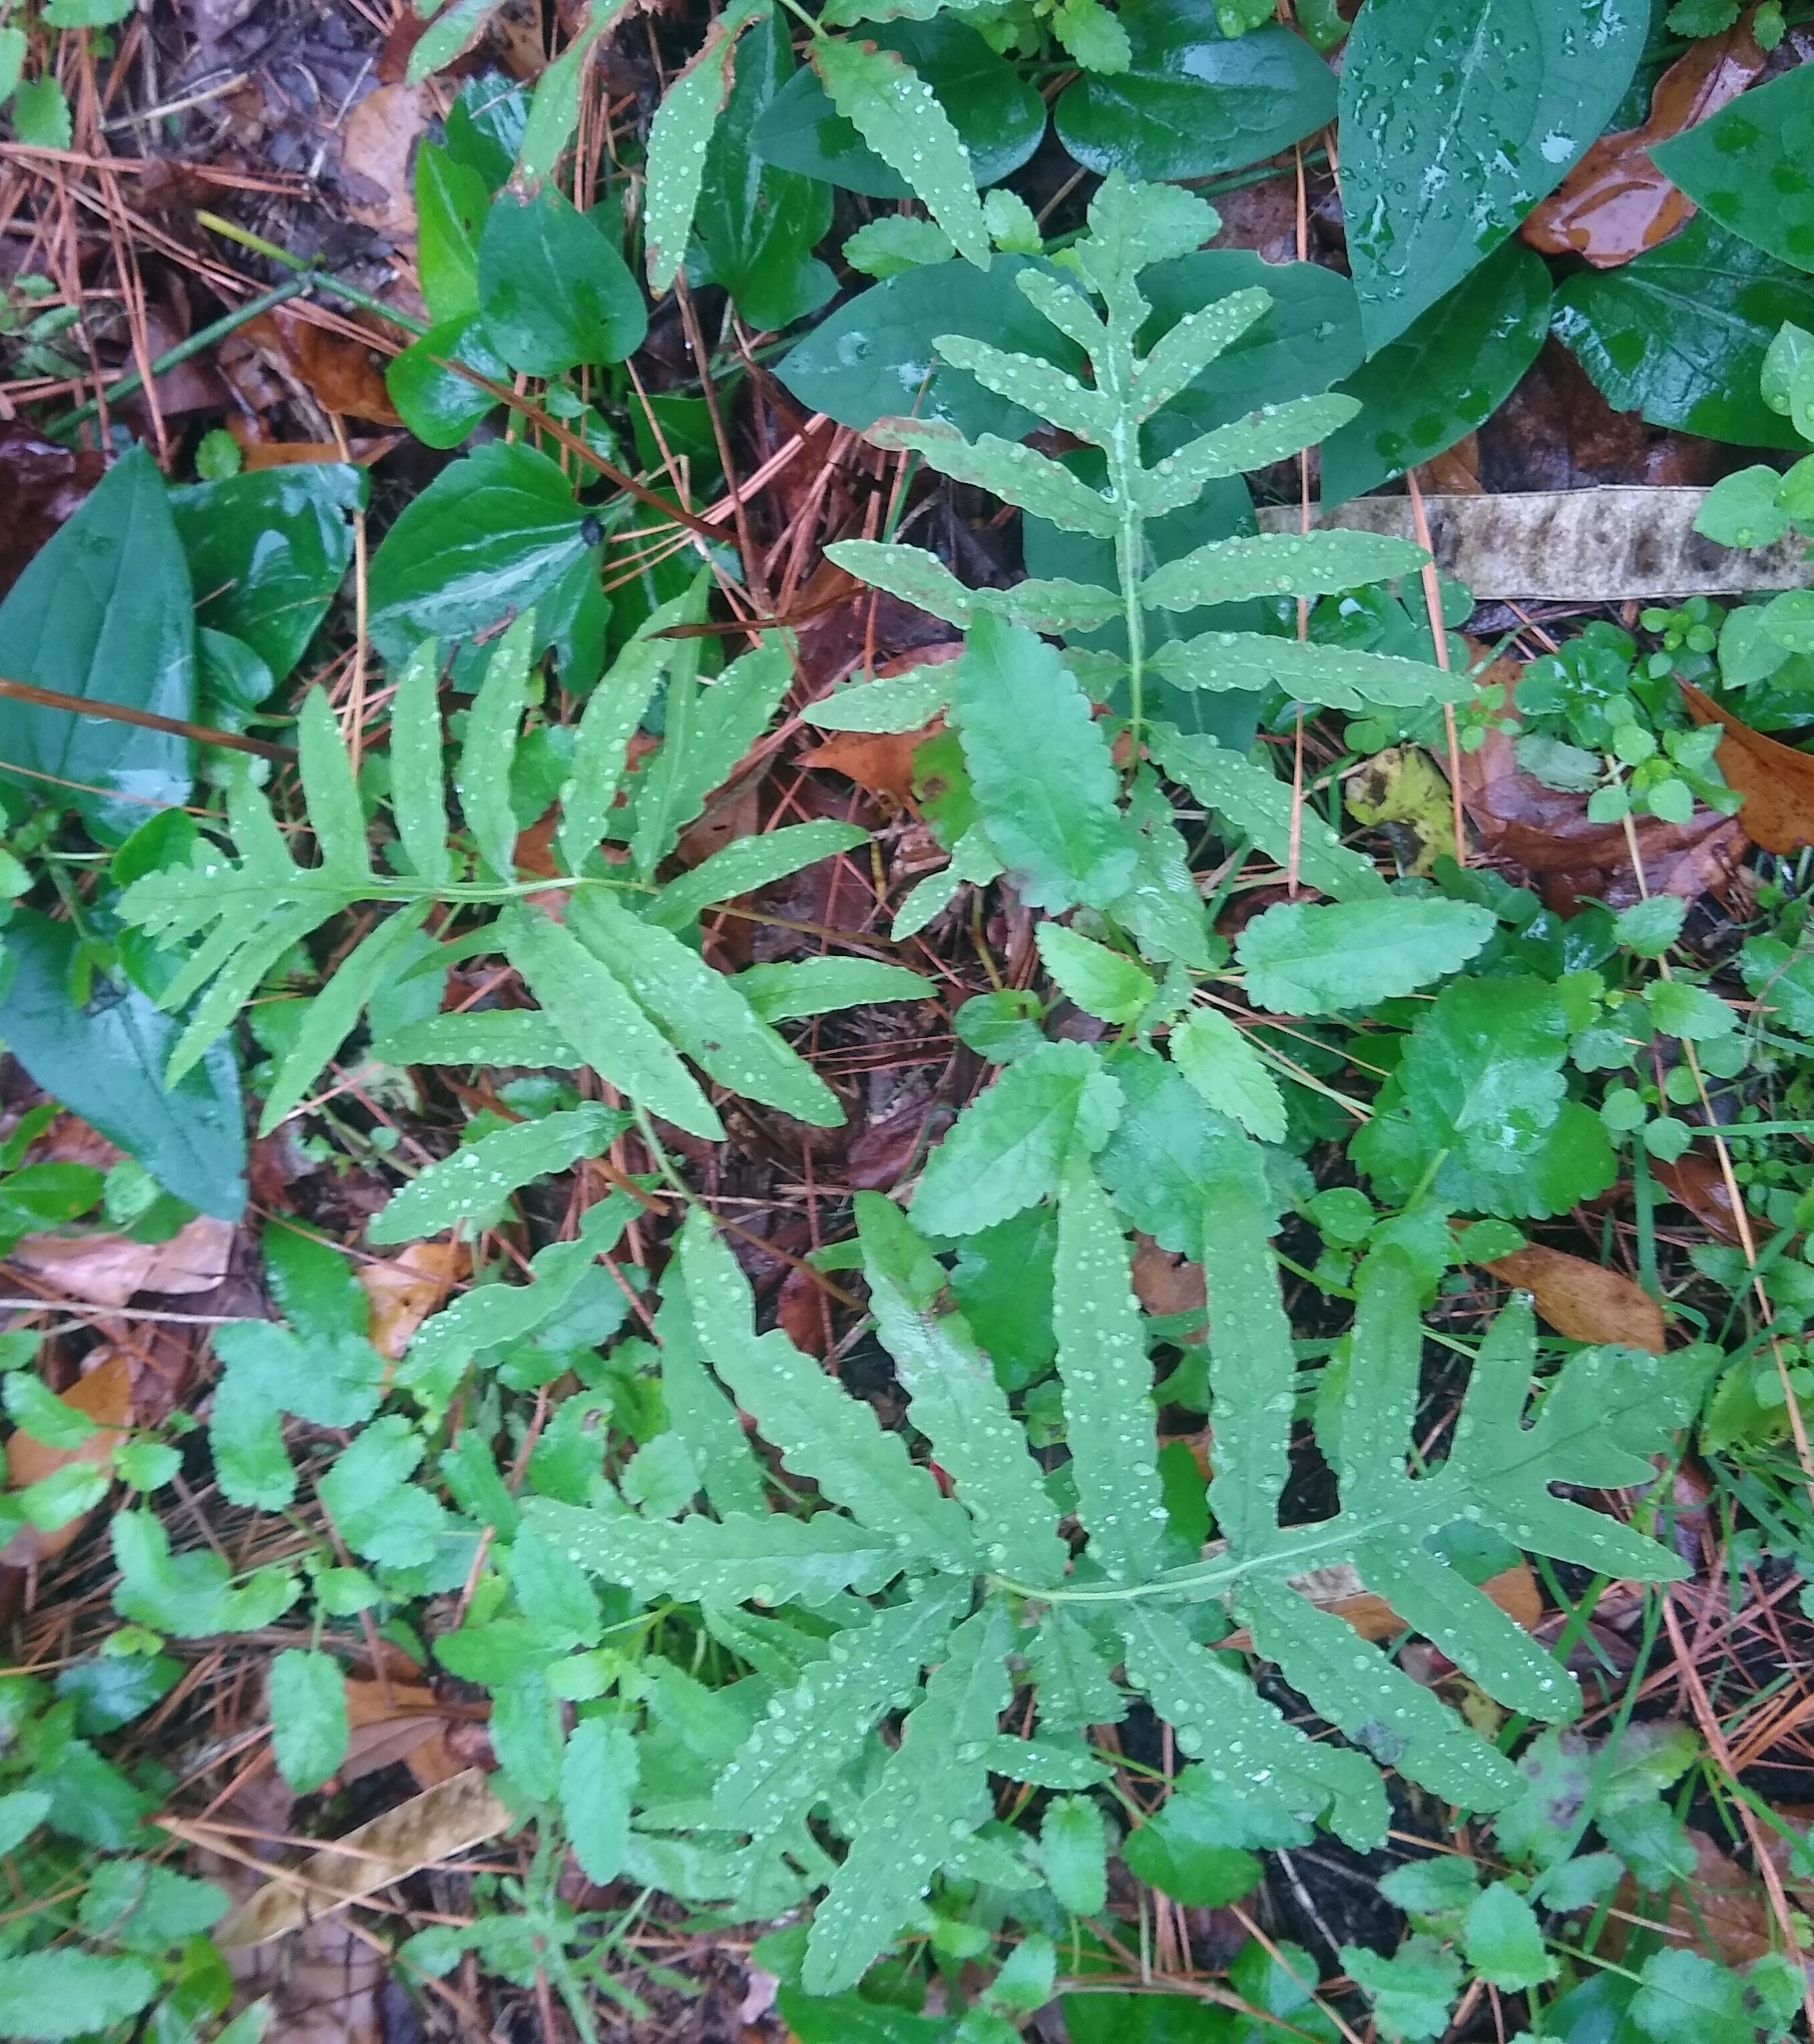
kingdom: Plantae
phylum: Tracheophyta
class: Polypodiopsida
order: Polypodiales
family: Onocleaceae
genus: Onoclea
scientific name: Onoclea sensibilis
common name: Sensitive fern
